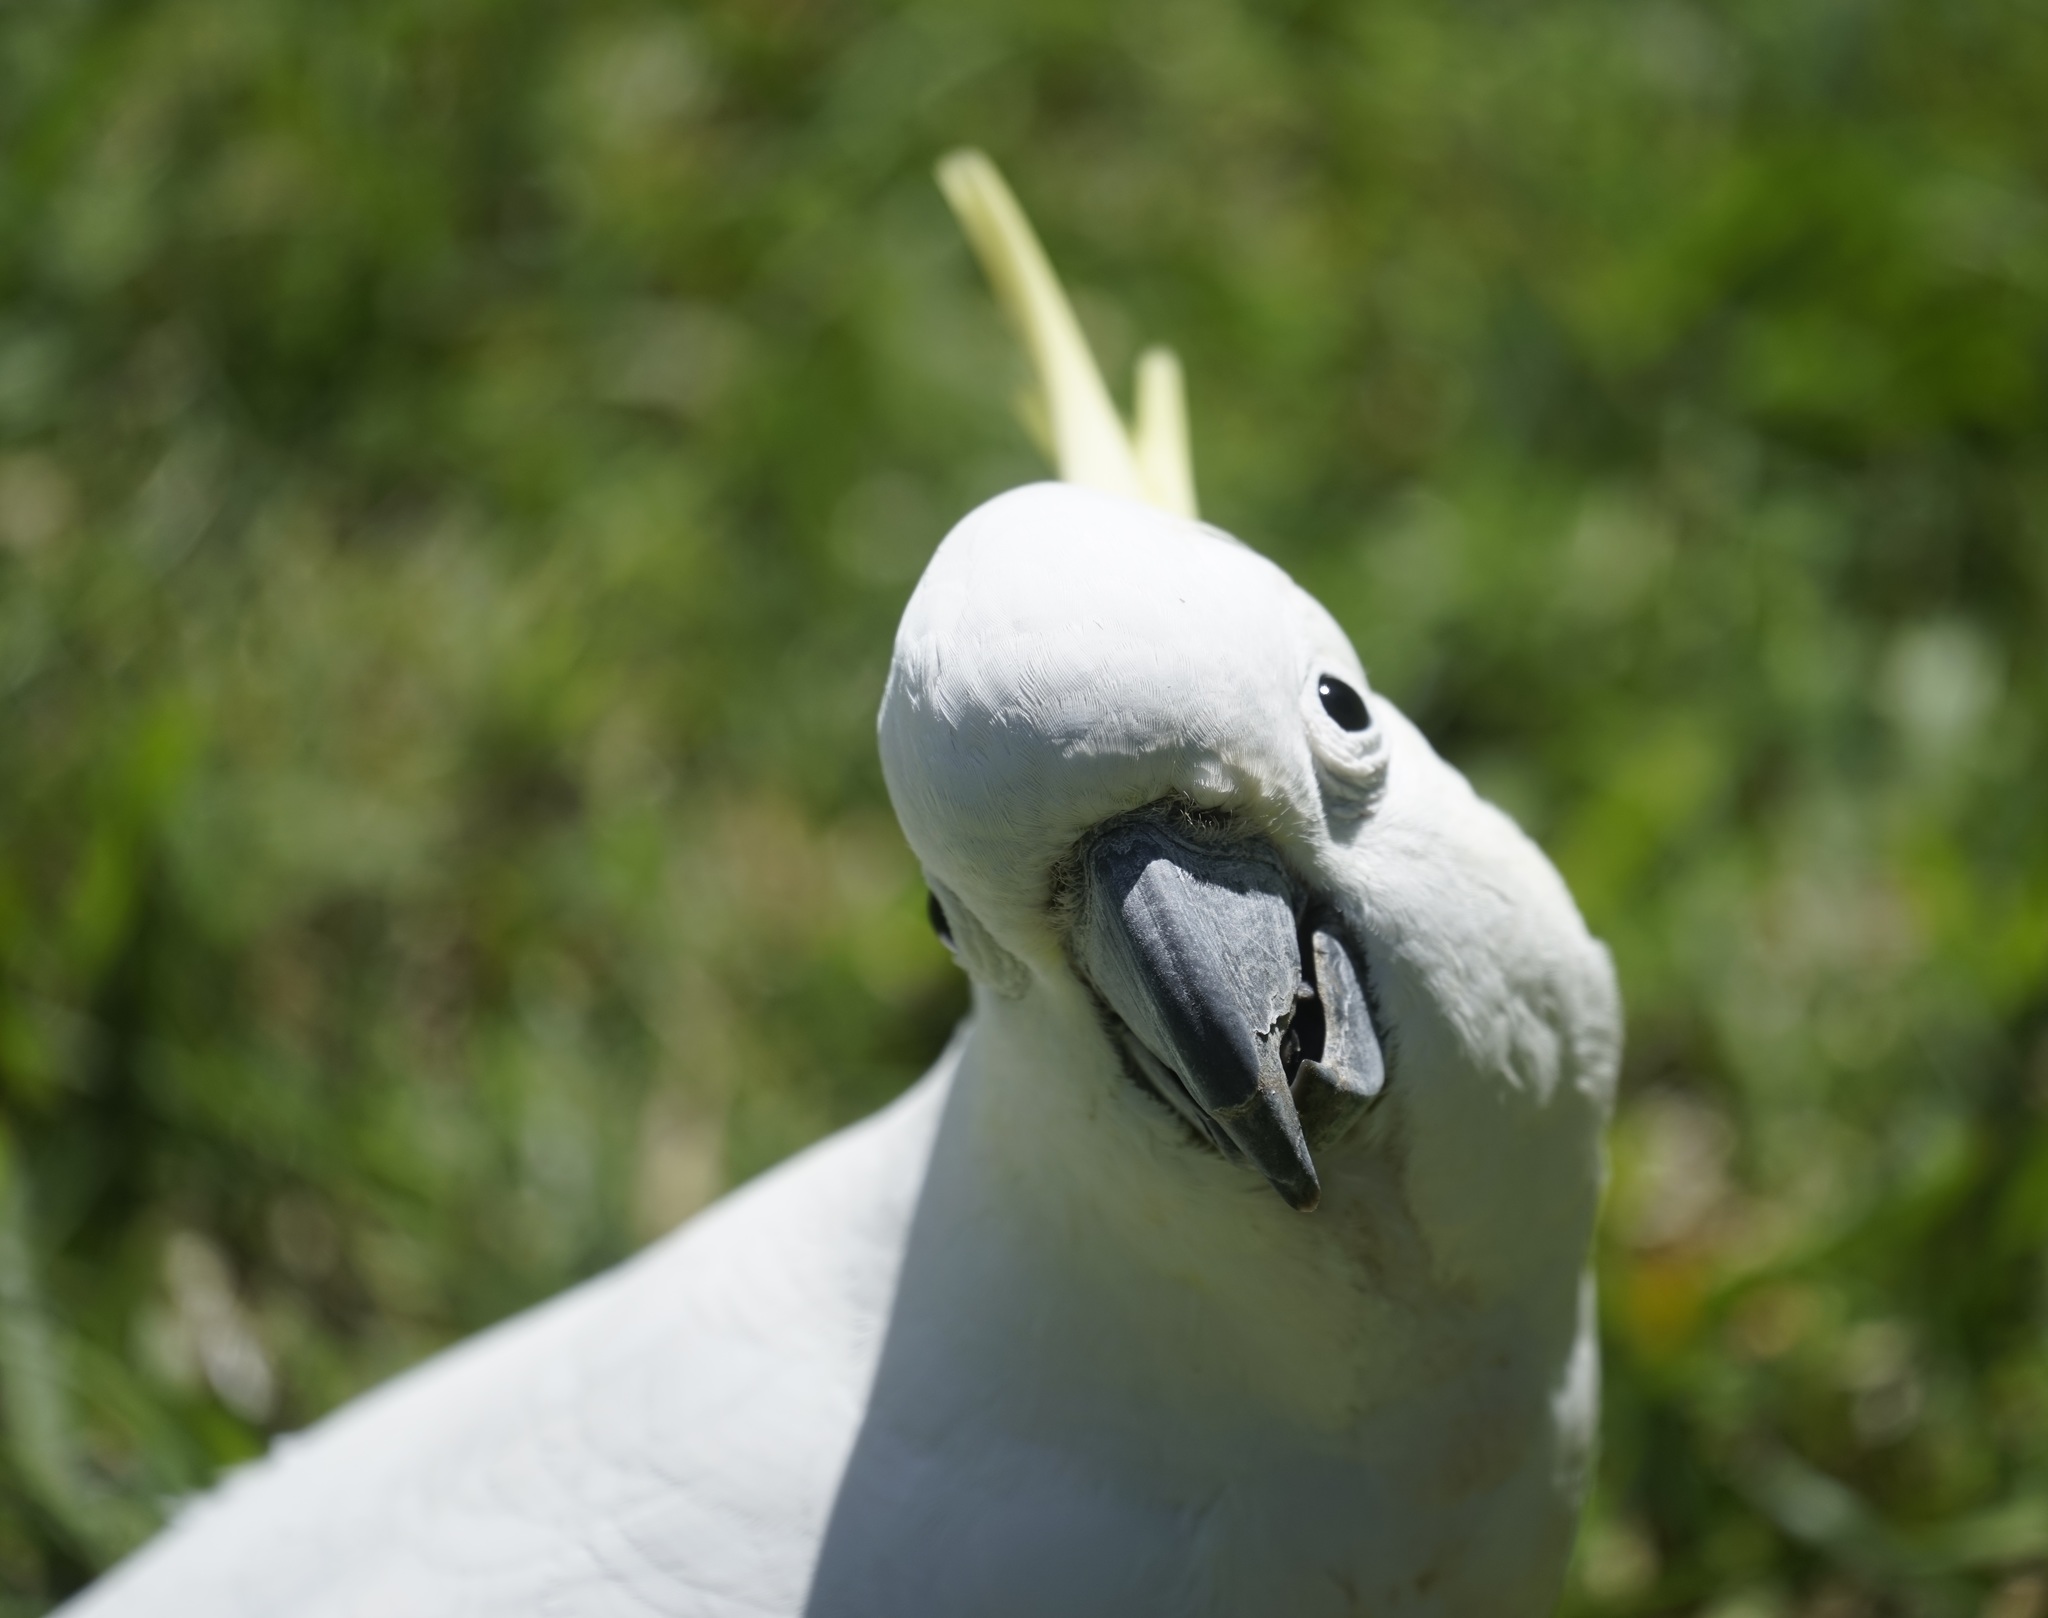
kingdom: Animalia
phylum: Chordata
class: Aves
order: Psittaciformes
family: Psittacidae
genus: Cacatua
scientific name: Cacatua galerita
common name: Sulphur-crested cockatoo
